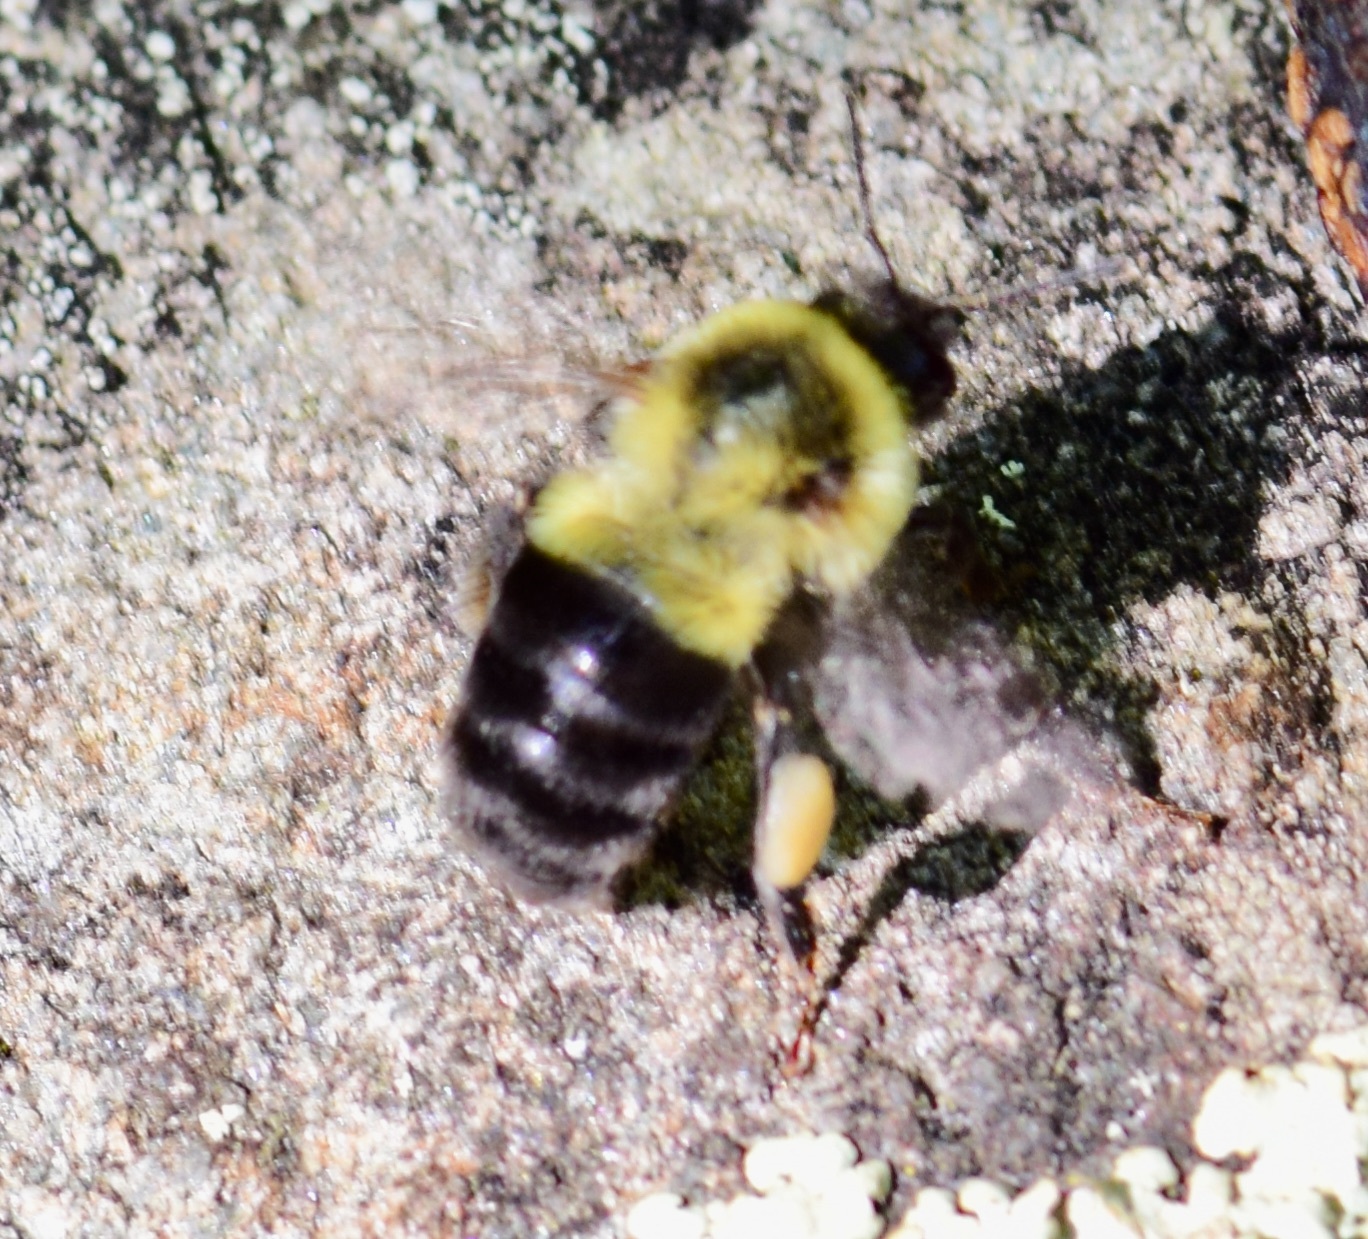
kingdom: Animalia
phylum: Arthropoda
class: Insecta
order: Hymenoptera
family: Apidae
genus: Bombus
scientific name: Bombus impatiens
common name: Common eastern bumble bee
